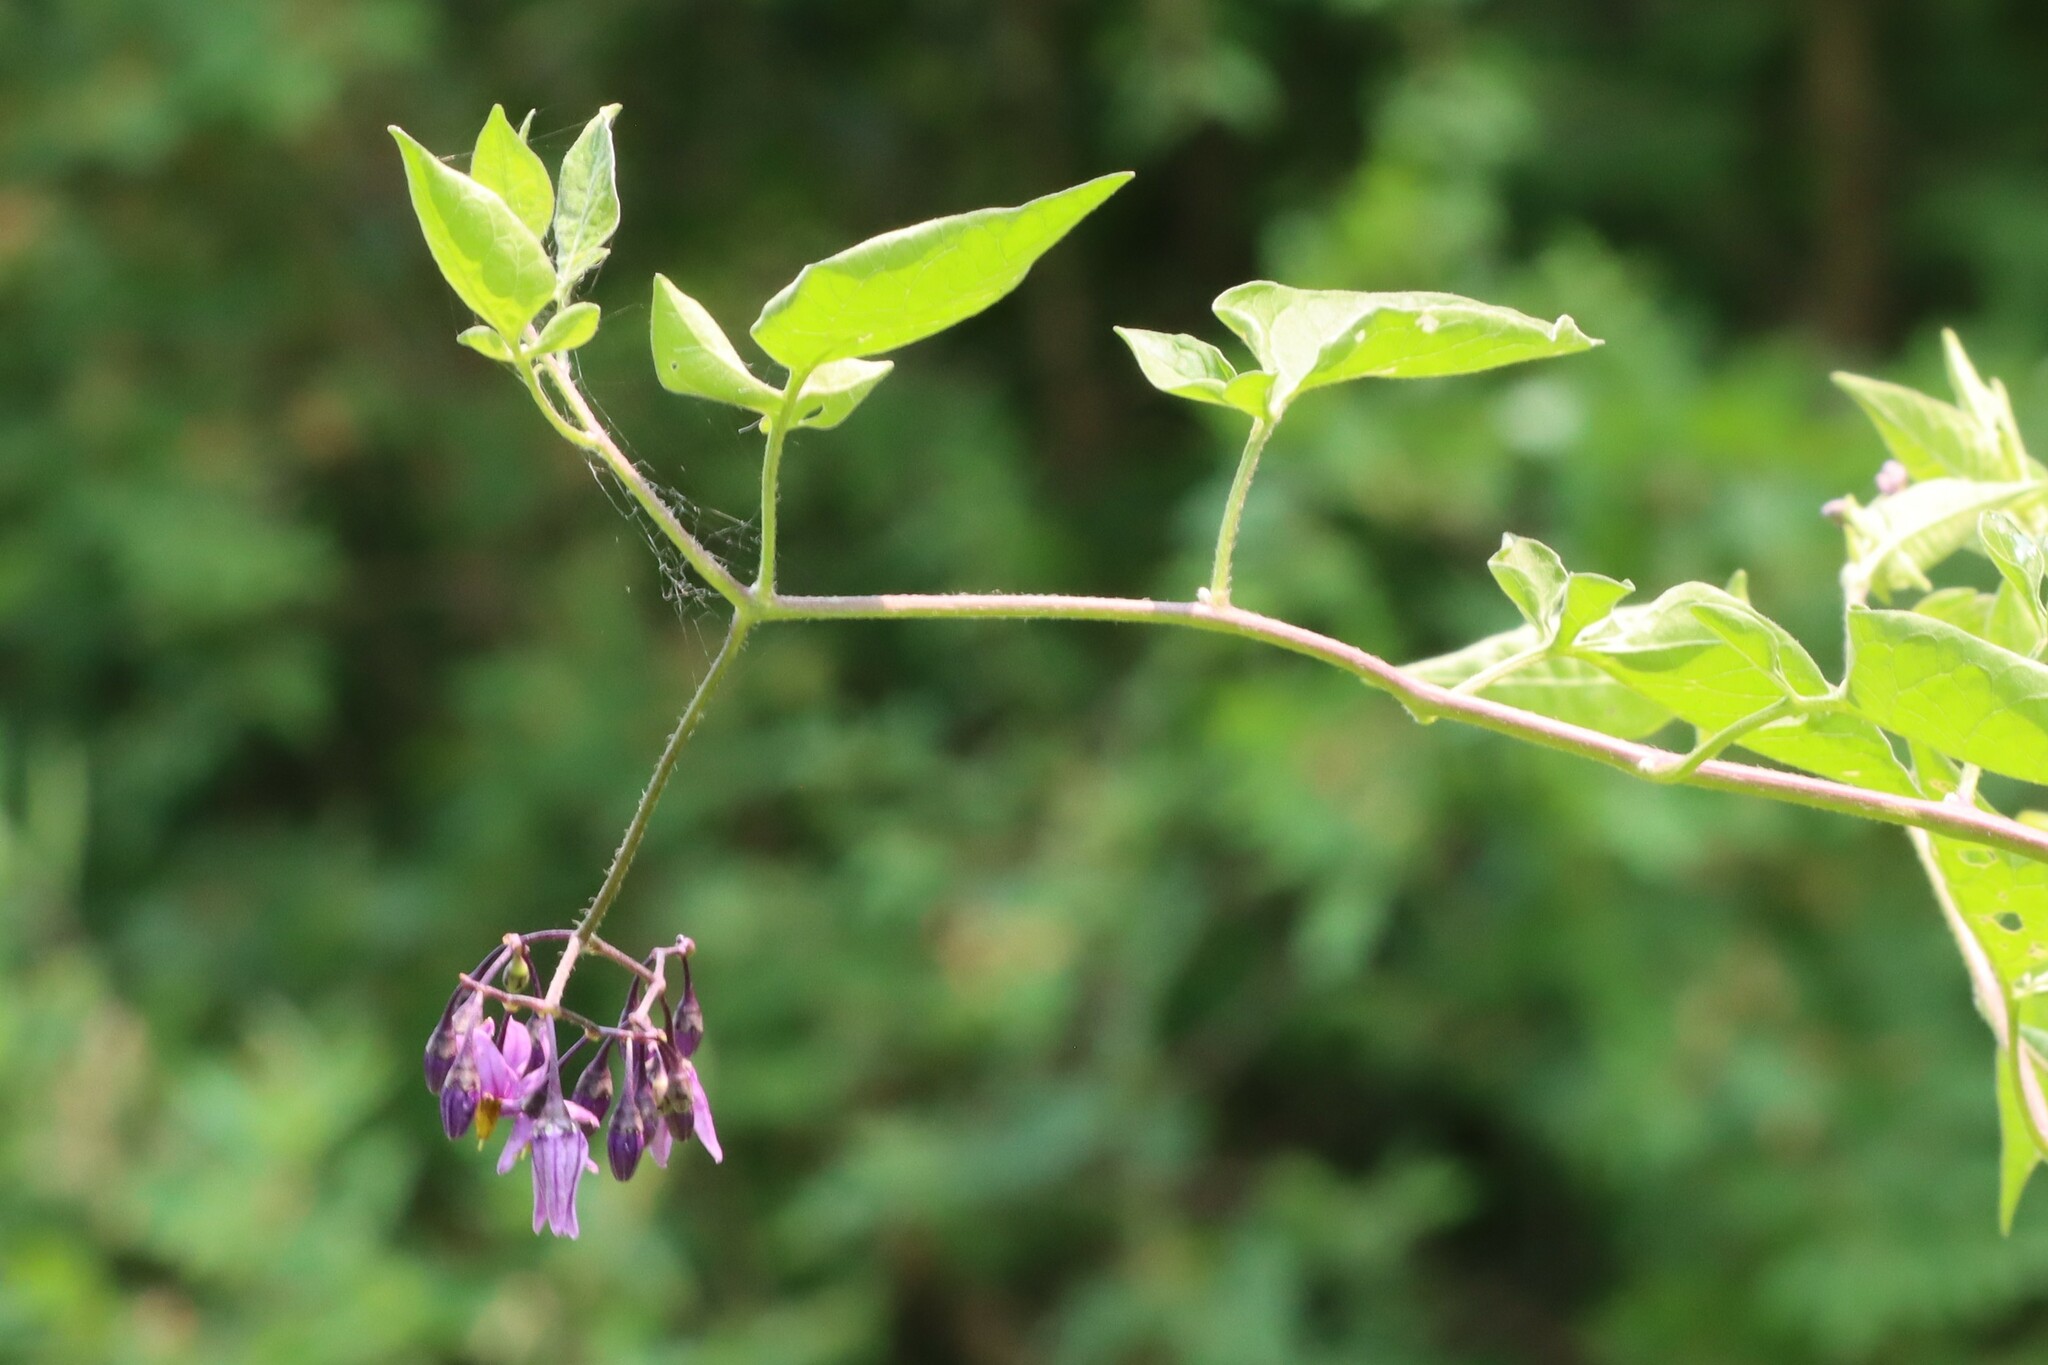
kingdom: Plantae
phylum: Tracheophyta
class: Magnoliopsida
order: Solanales
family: Solanaceae
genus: Solanum
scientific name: Solanum dulcamara
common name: Climbing nightshade
